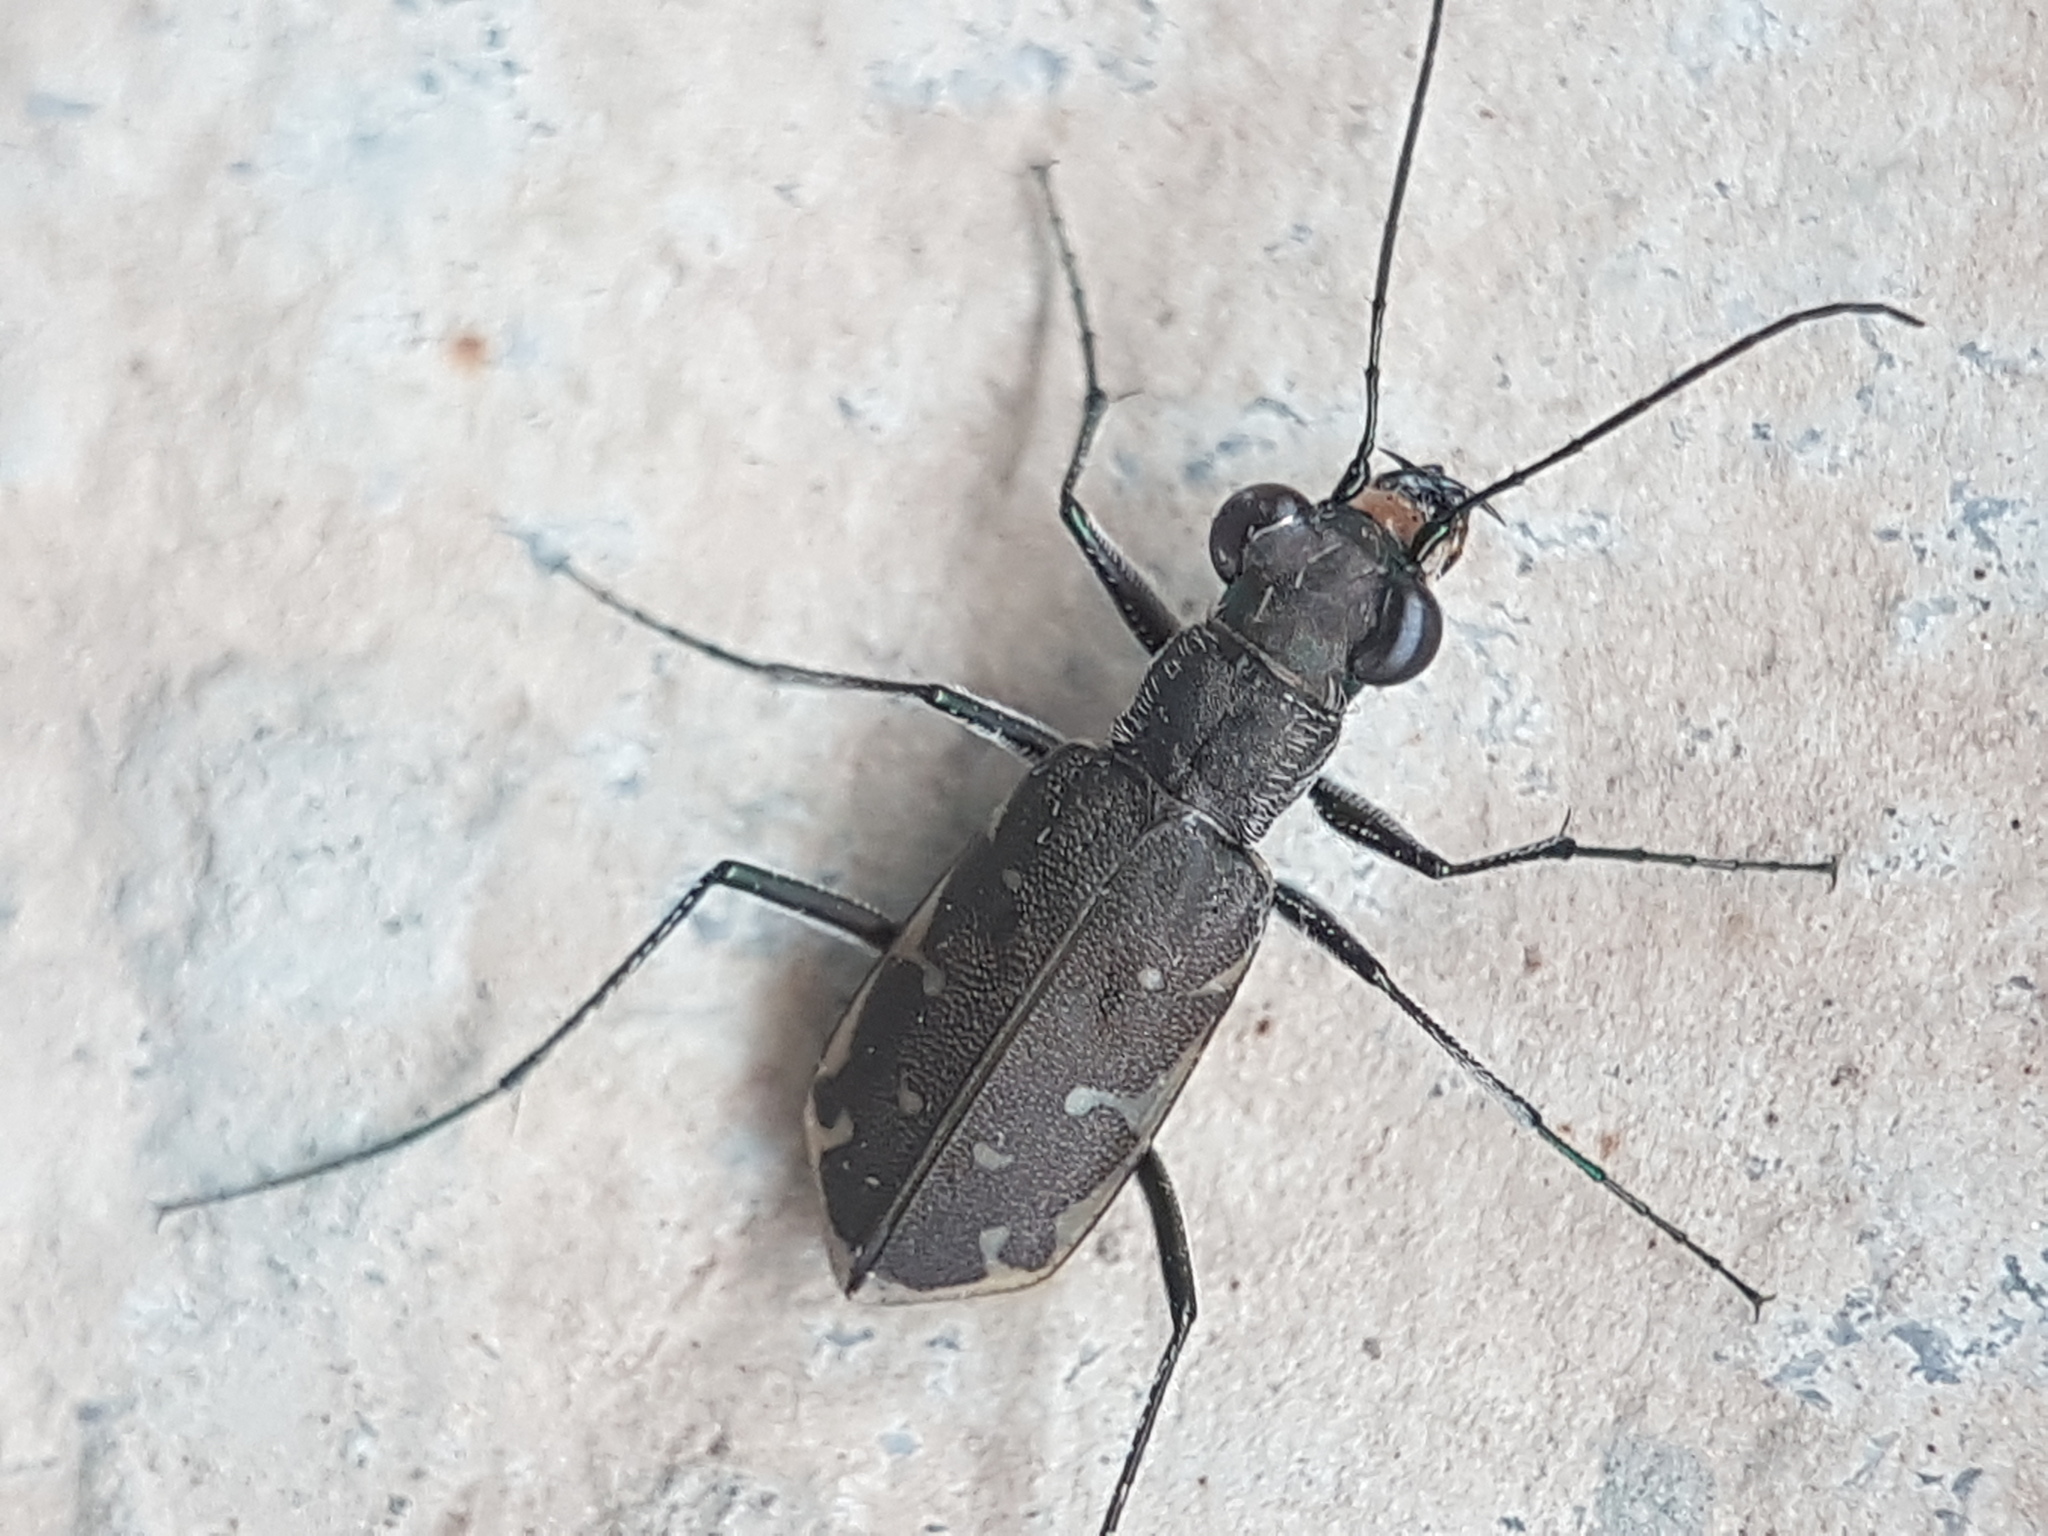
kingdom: Animalia
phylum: Arthropoda
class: Insecta
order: Coleoptera
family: Carabidae
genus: Myriochila
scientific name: Myriochila melancholica
